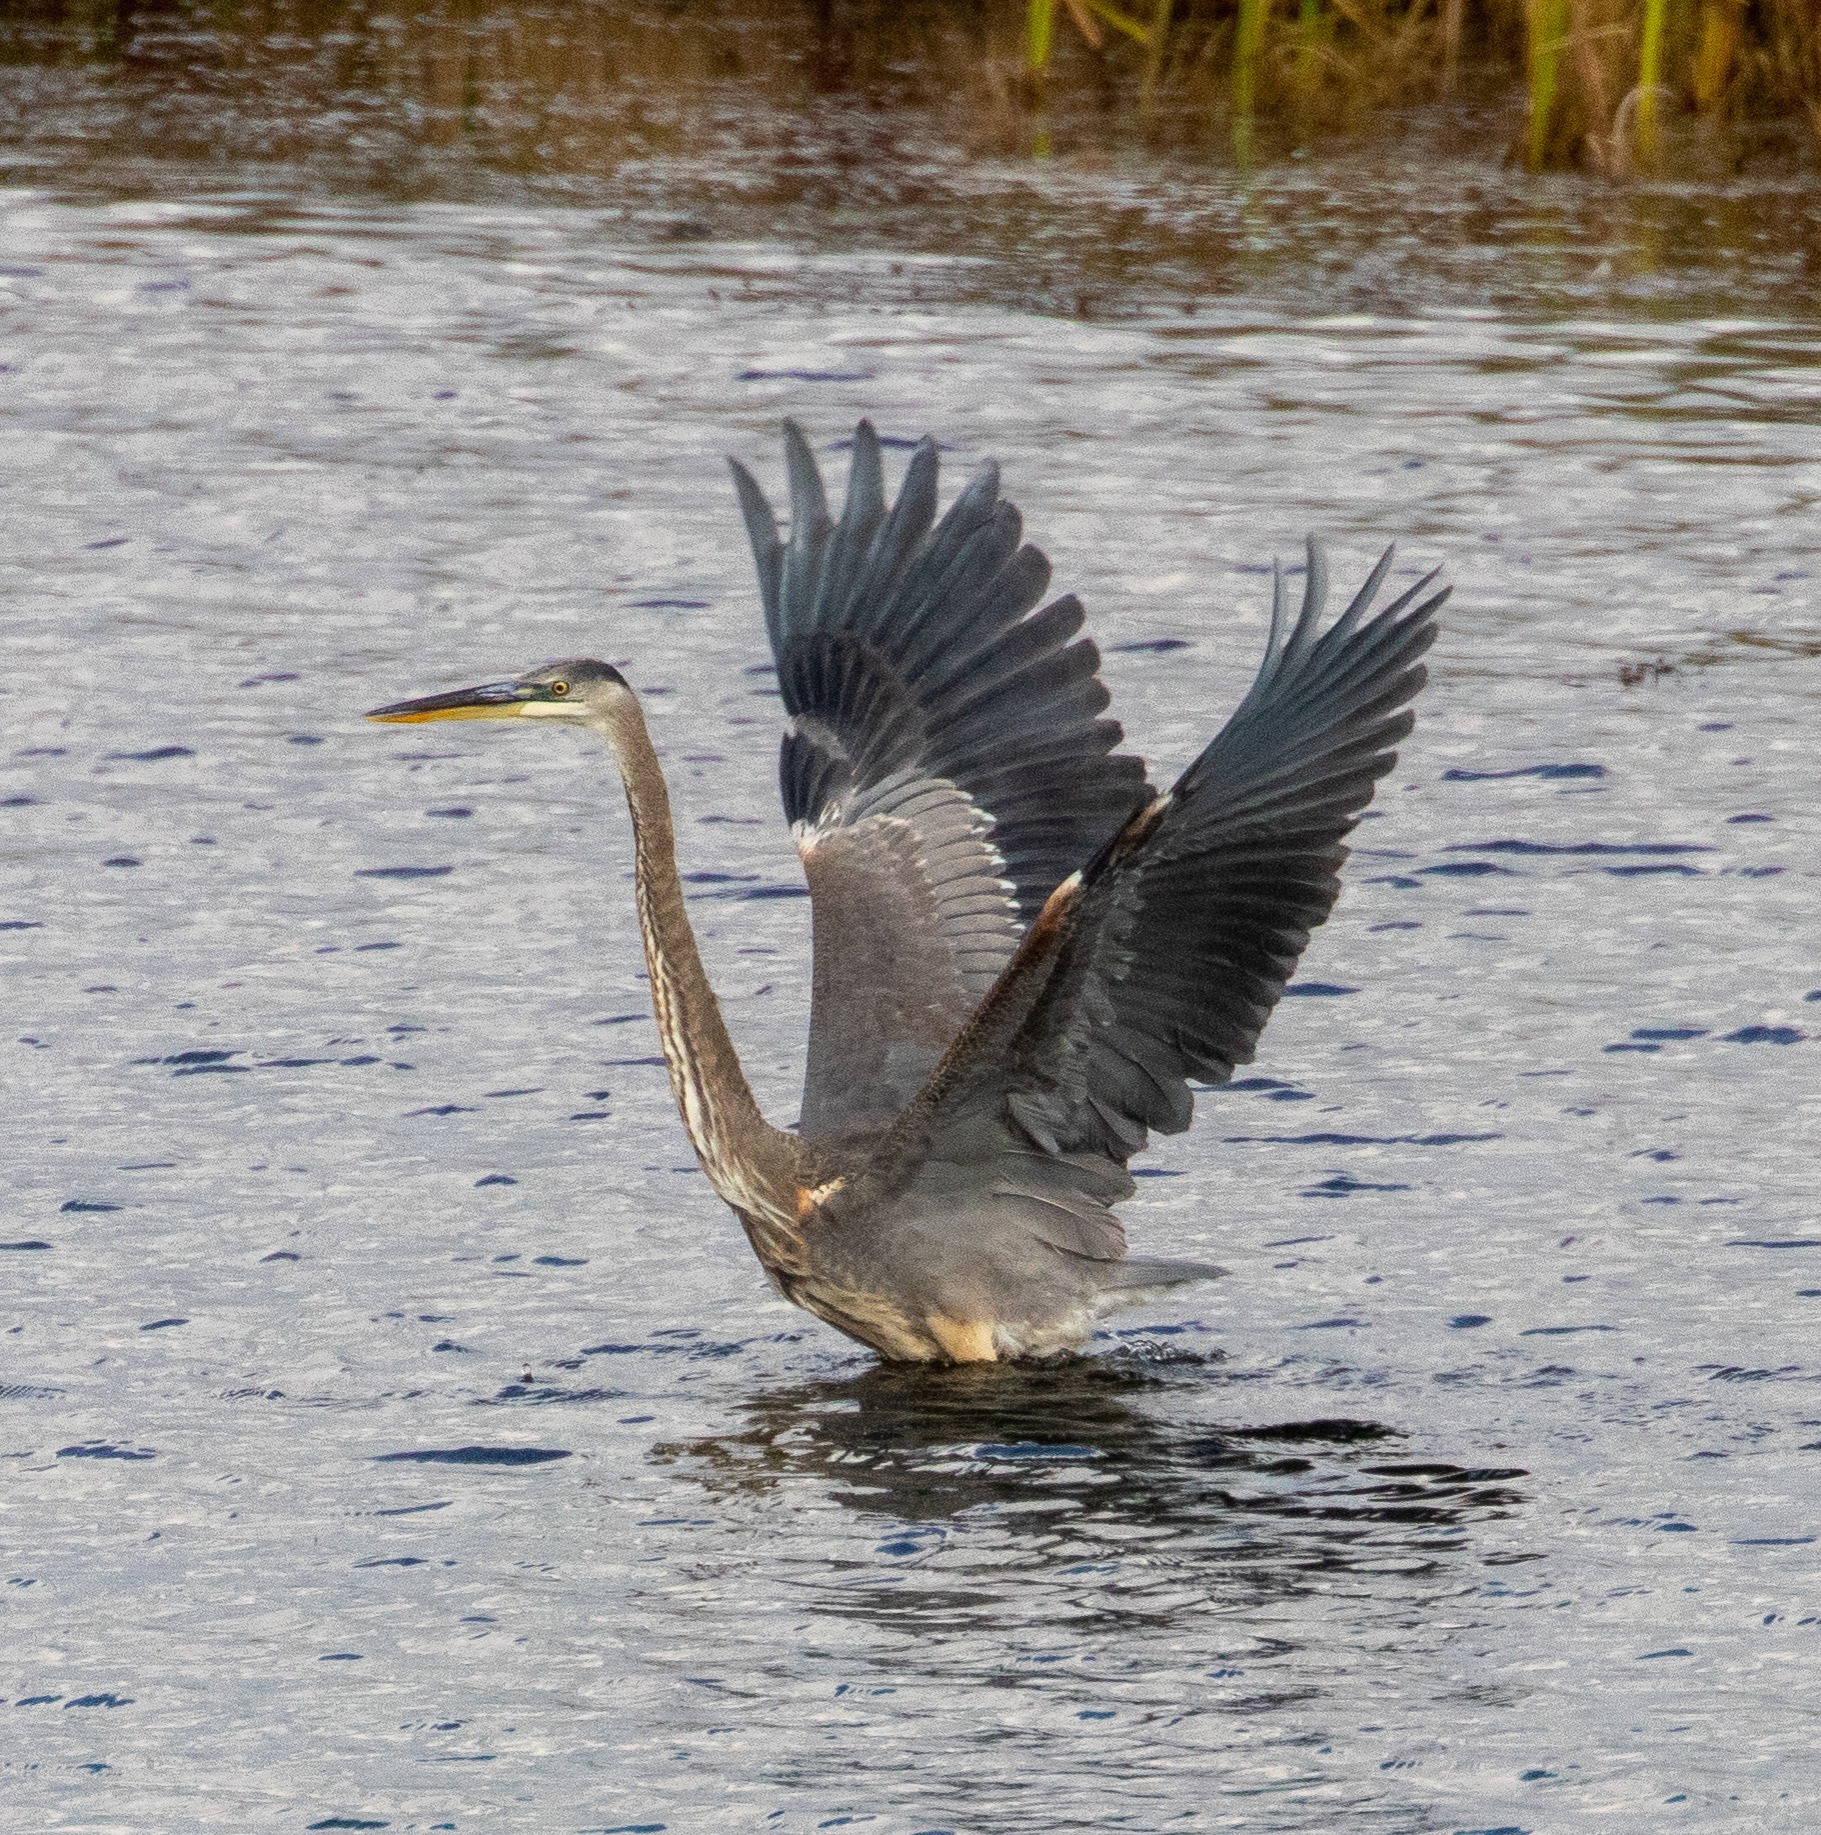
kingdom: Animalia
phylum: Chordata
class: Aves
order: Pelecaniformes
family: Ardeidae
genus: Ardea
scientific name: Ardea herodias
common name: Great blue heron
